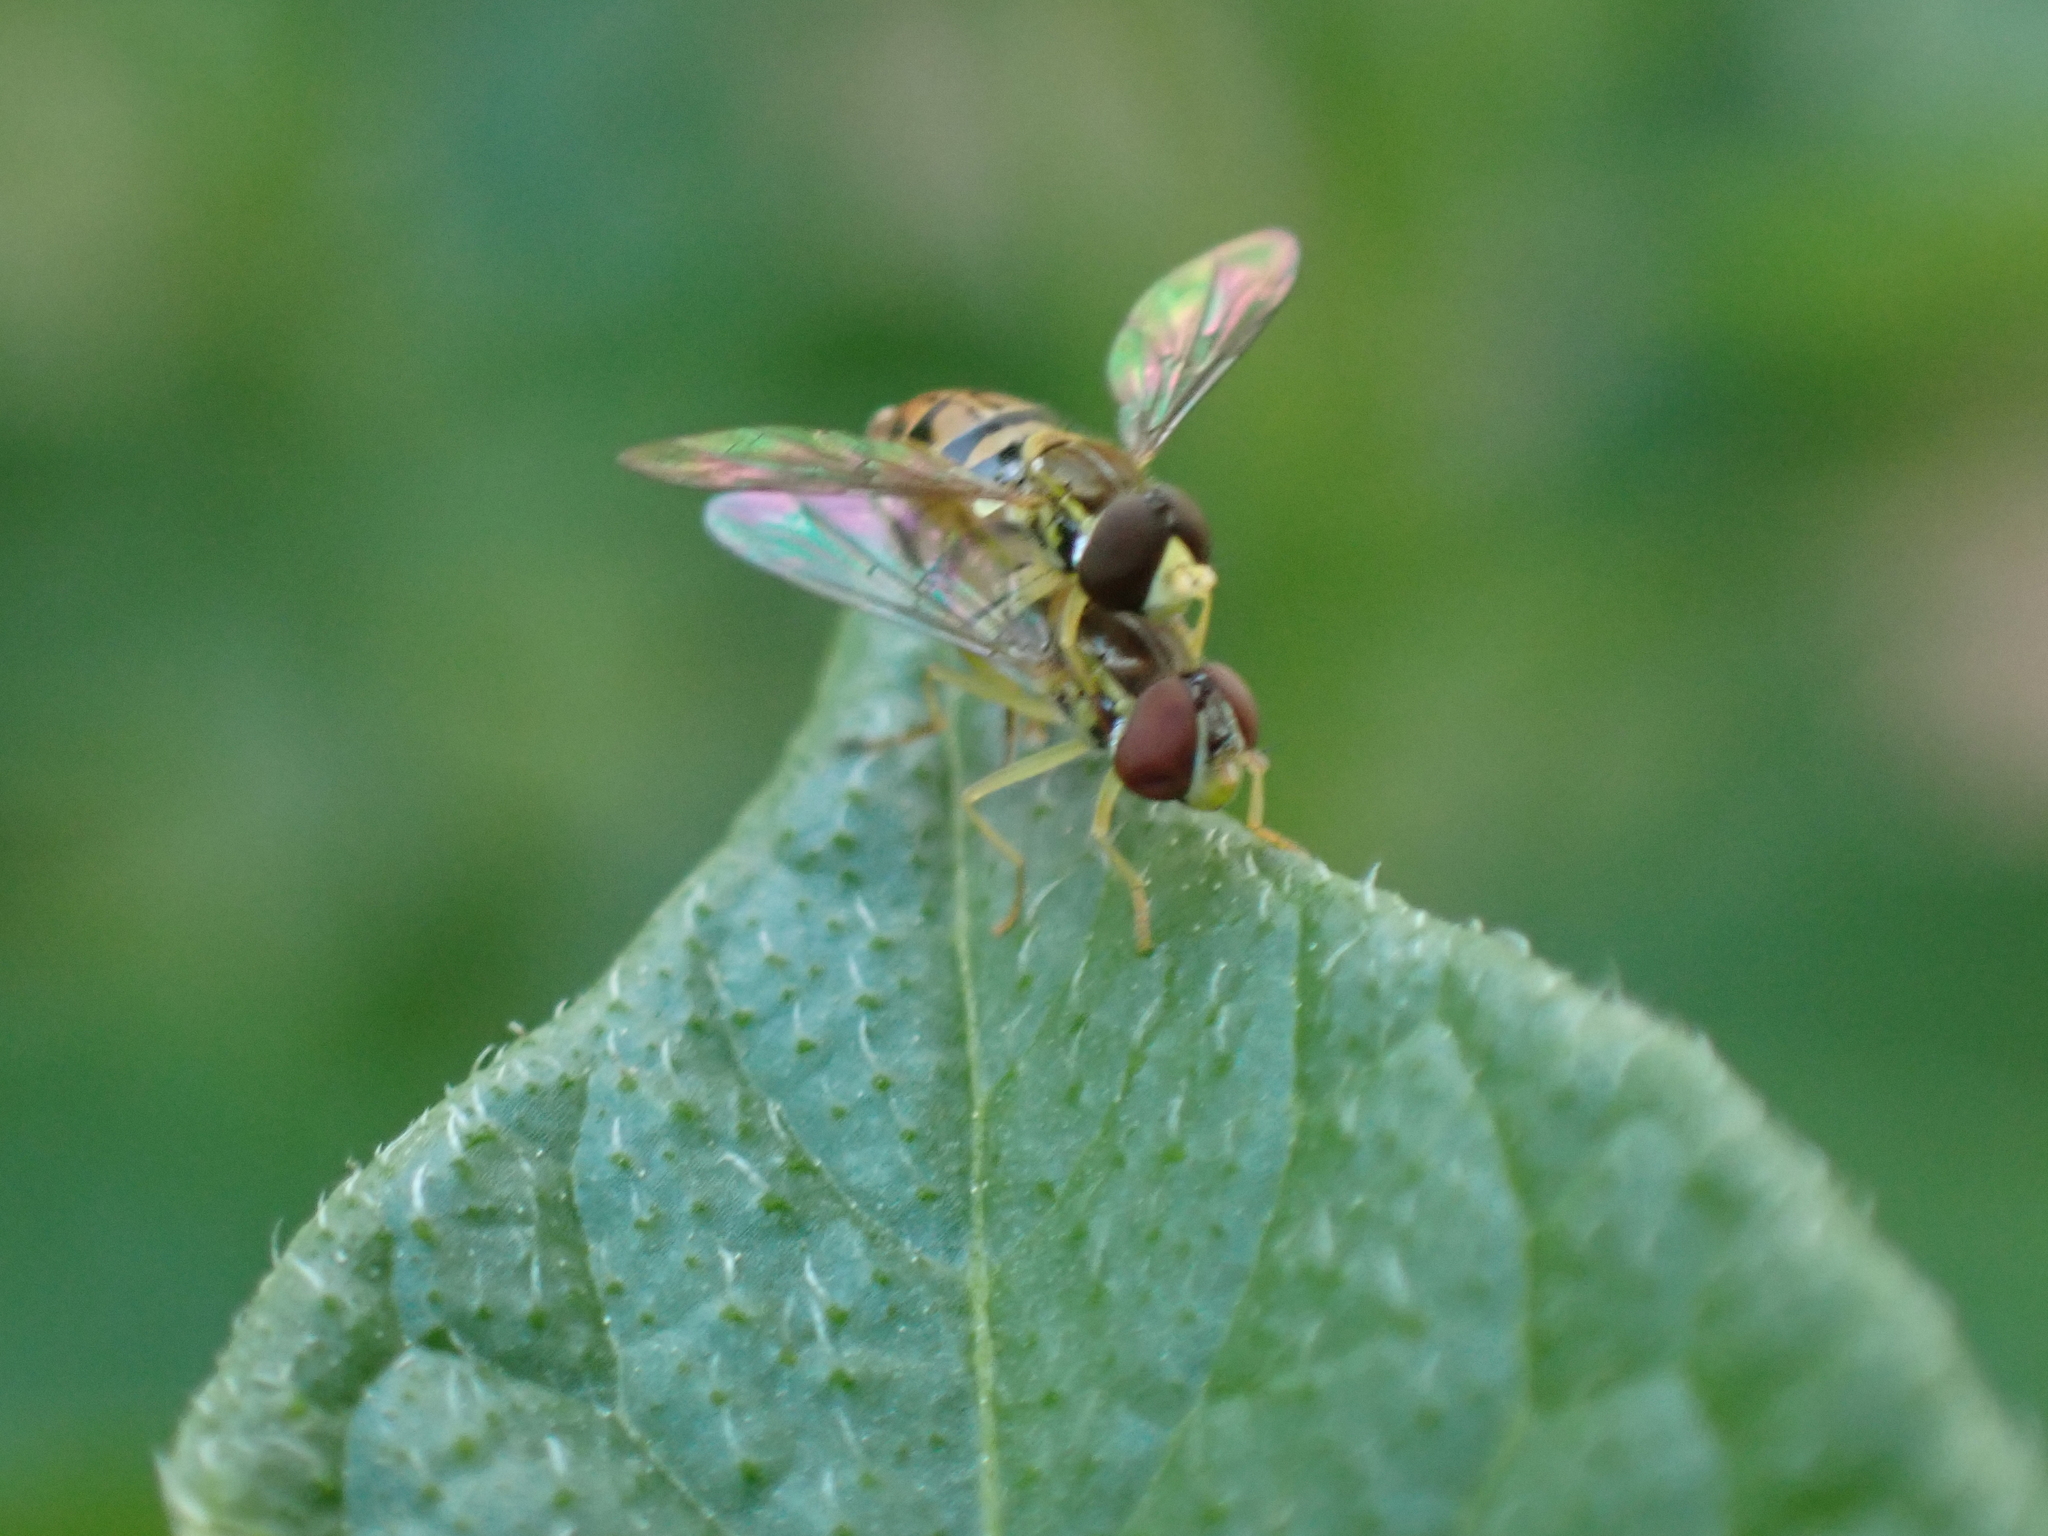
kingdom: Animalia
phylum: Arthropoda
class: Insecta
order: Diptera
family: Syrphidae
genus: Toxomerus
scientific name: Toxomerus marginatus
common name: Syrphid fly
